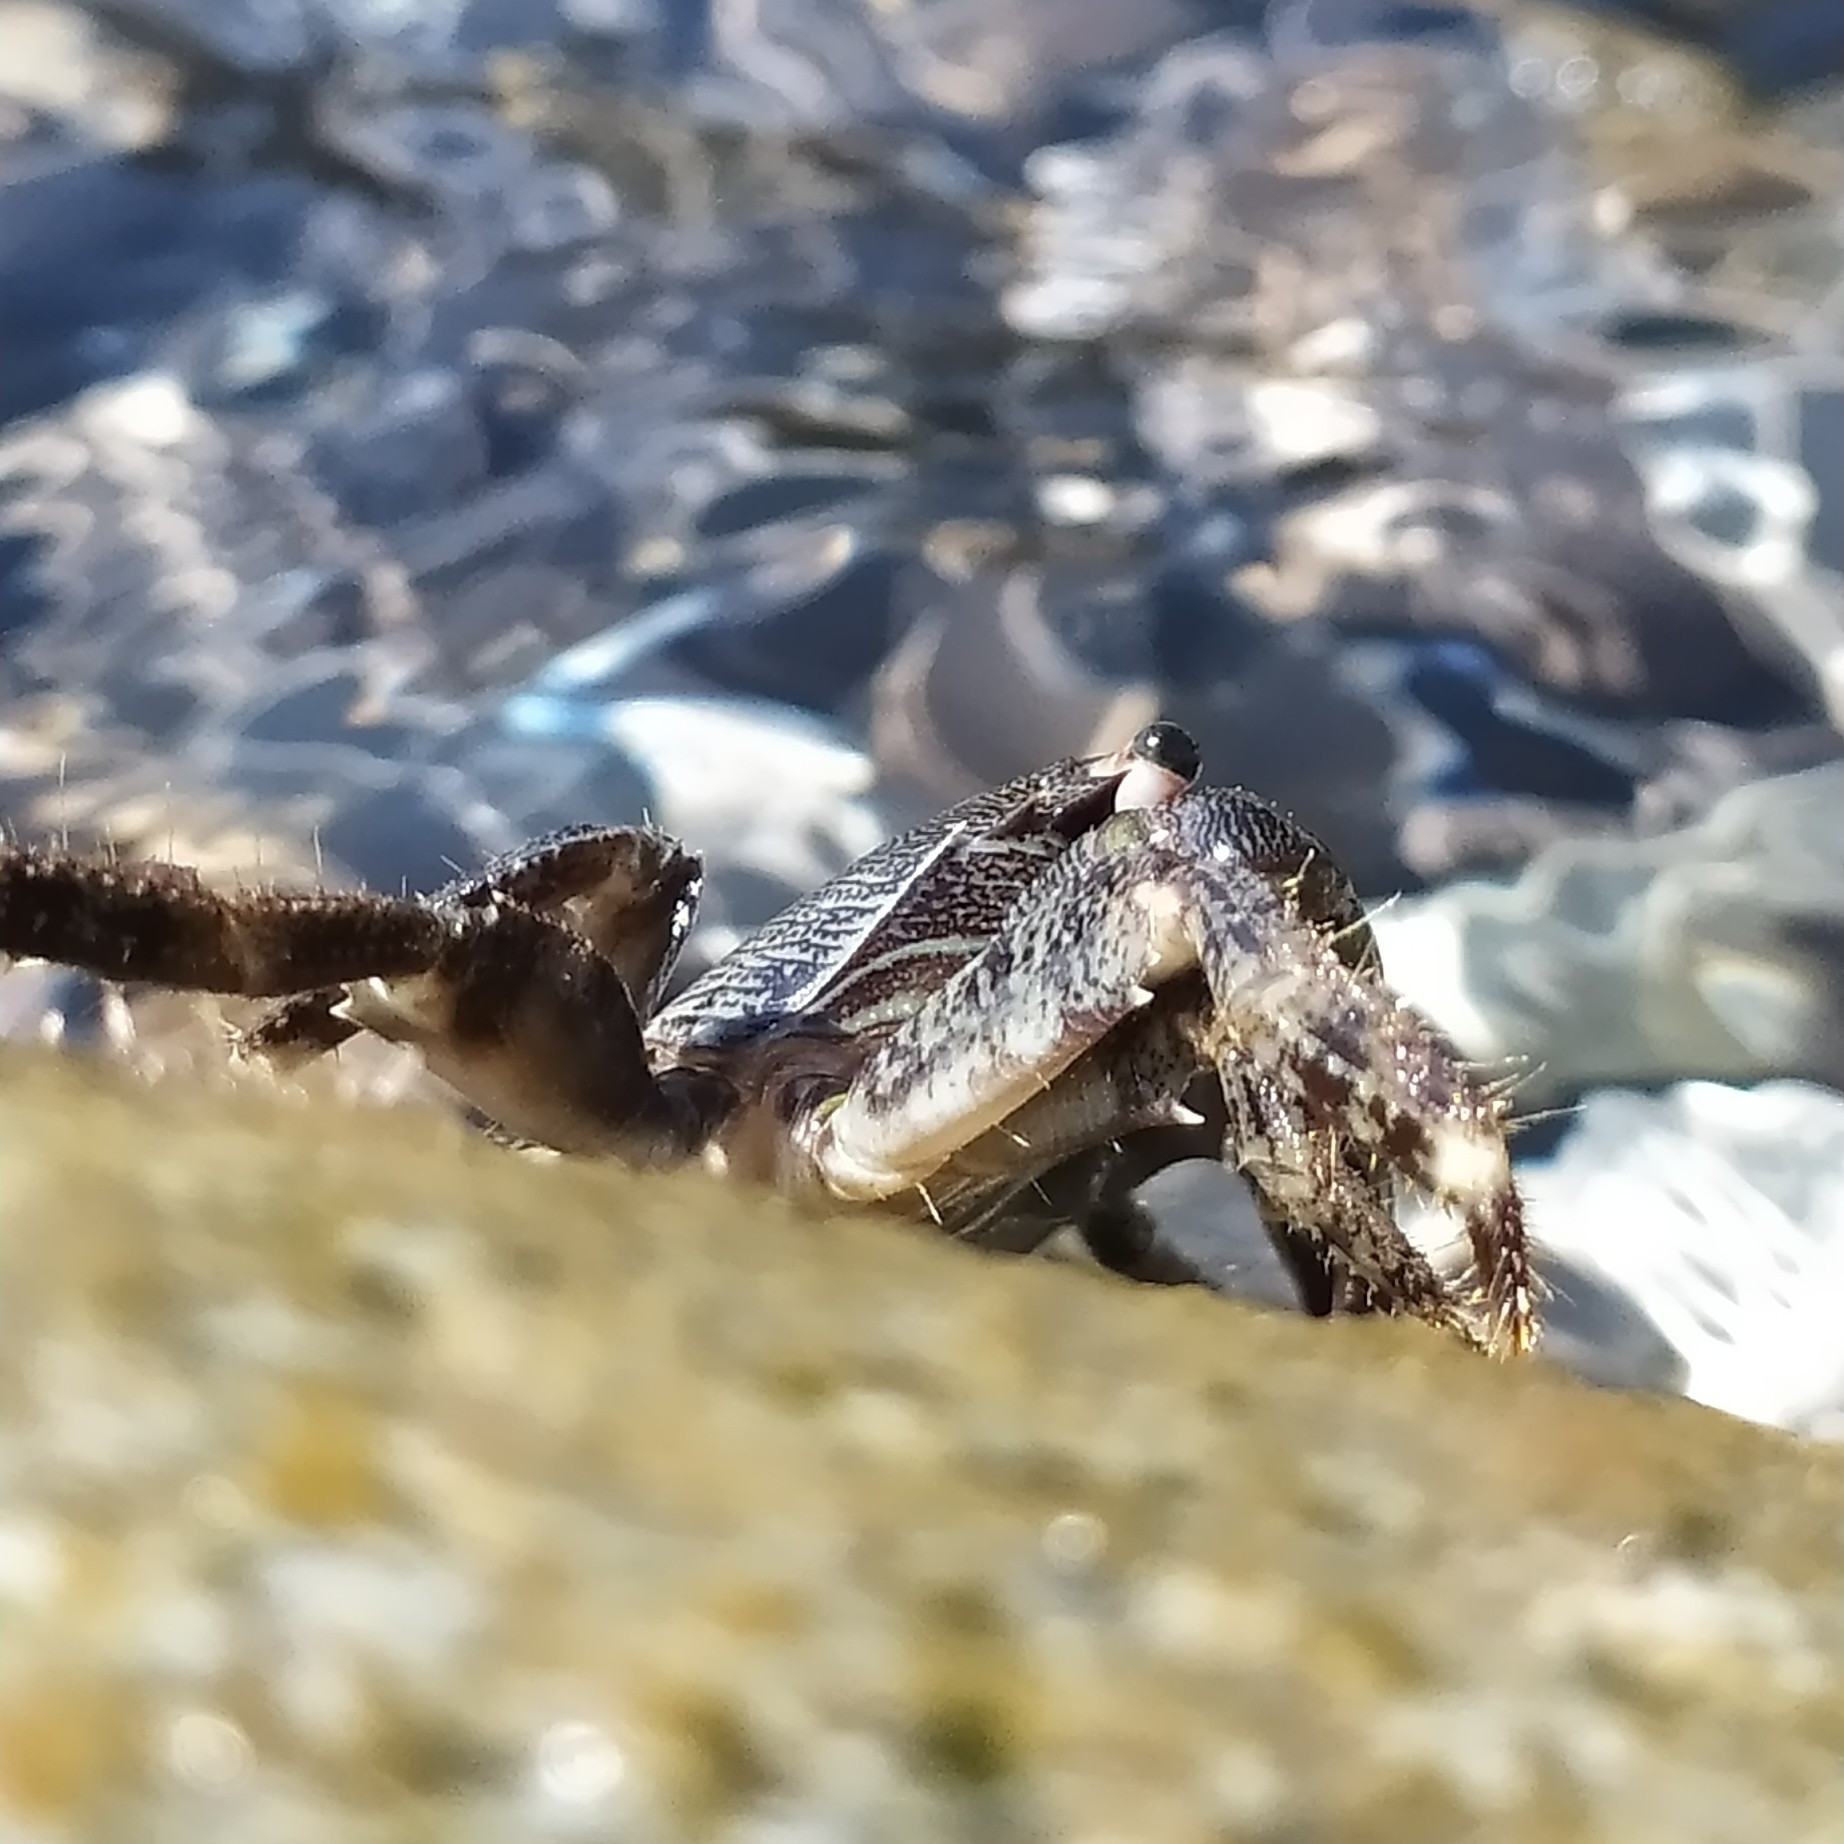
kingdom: Animalia
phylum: Arthropoda
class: Malacostraca
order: Decapoda
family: Grapsidae
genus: Pachygrapsus
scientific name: Pachygrapsus marmoratus
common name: Marbled rock crab
